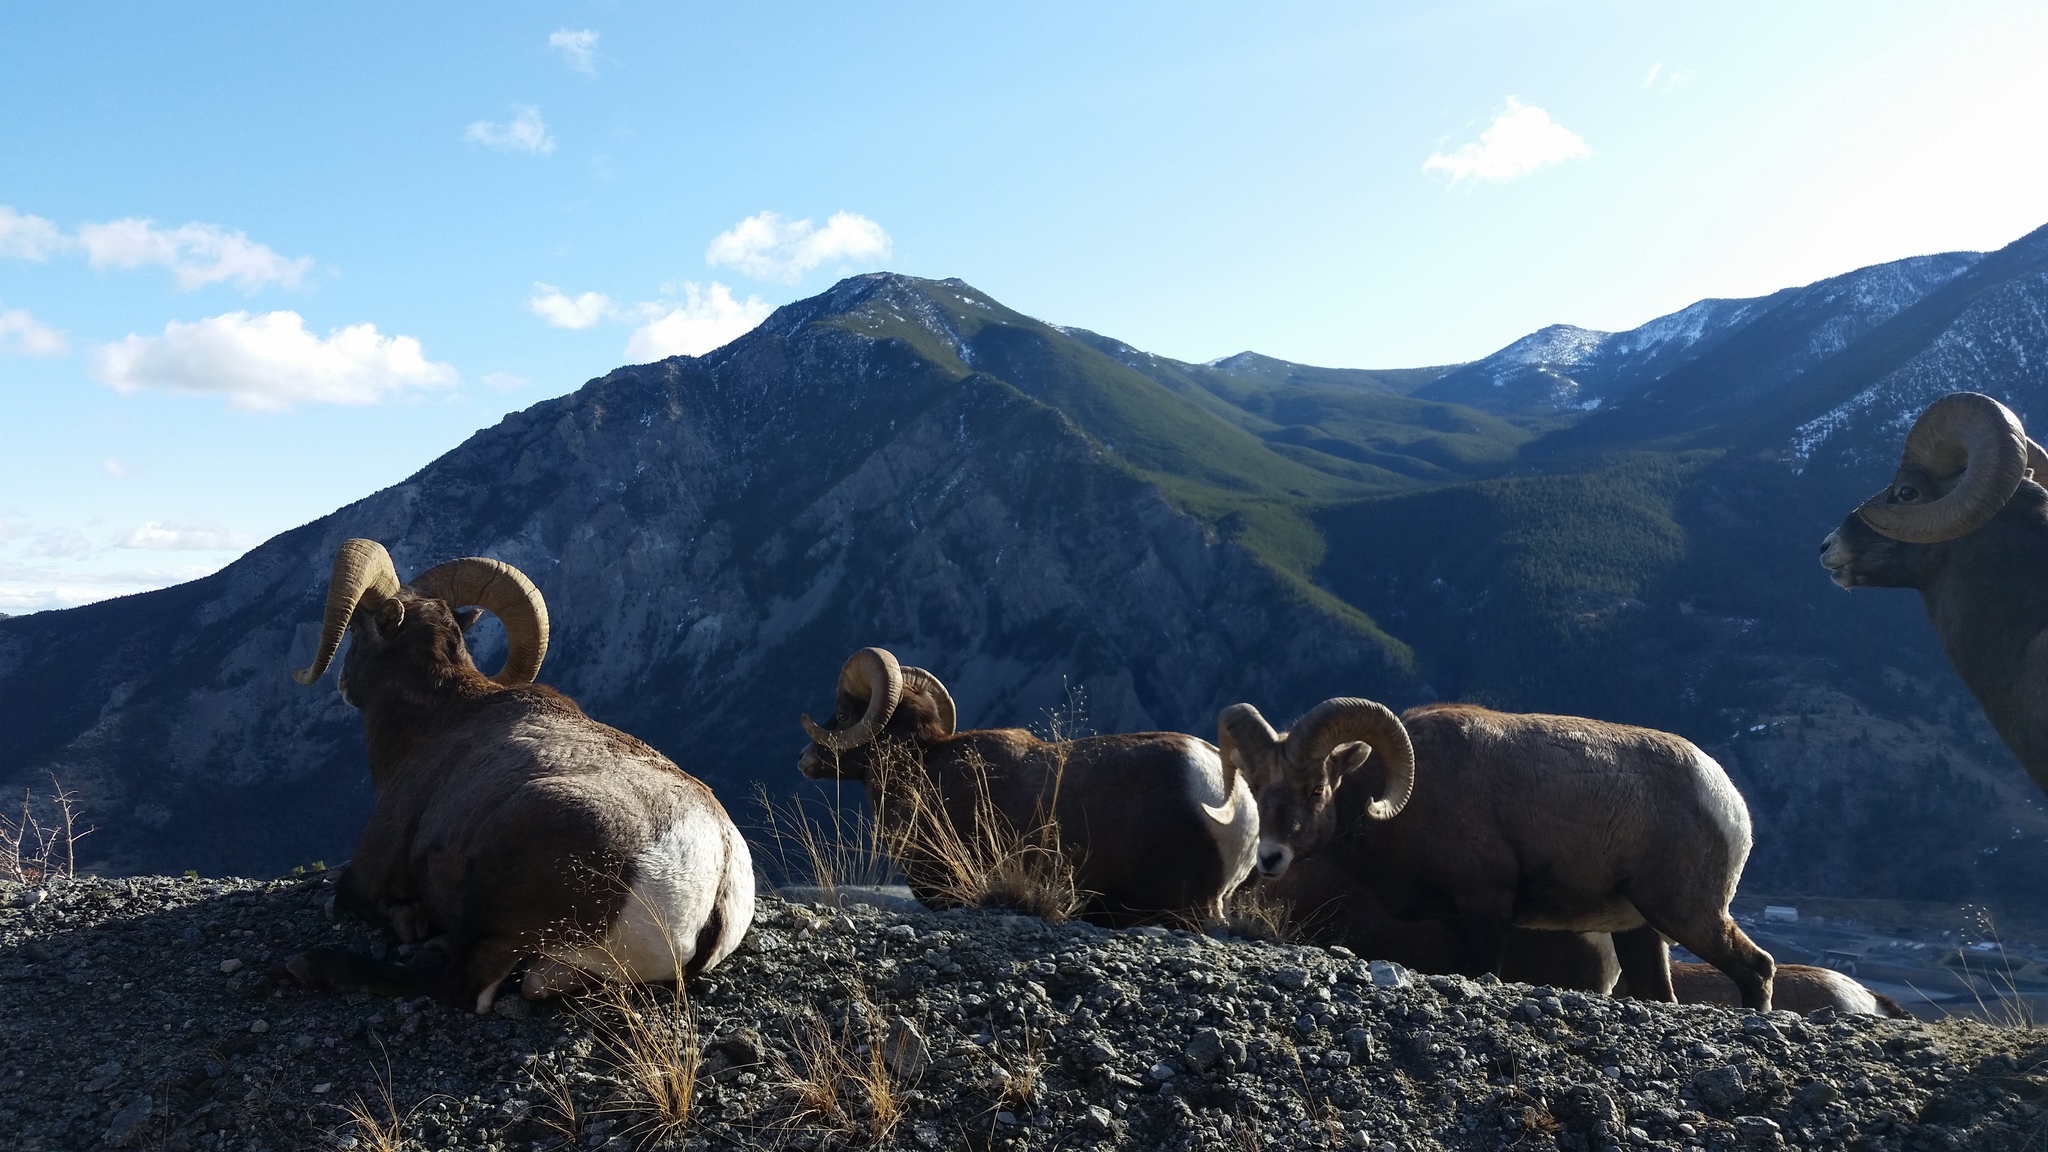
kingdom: Plantae
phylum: Tracheophyta
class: Liliopsida
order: Poales
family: Poaceae
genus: Eriocoma
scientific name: Eriocoma hymenoides
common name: Indian mountain ricegrass
